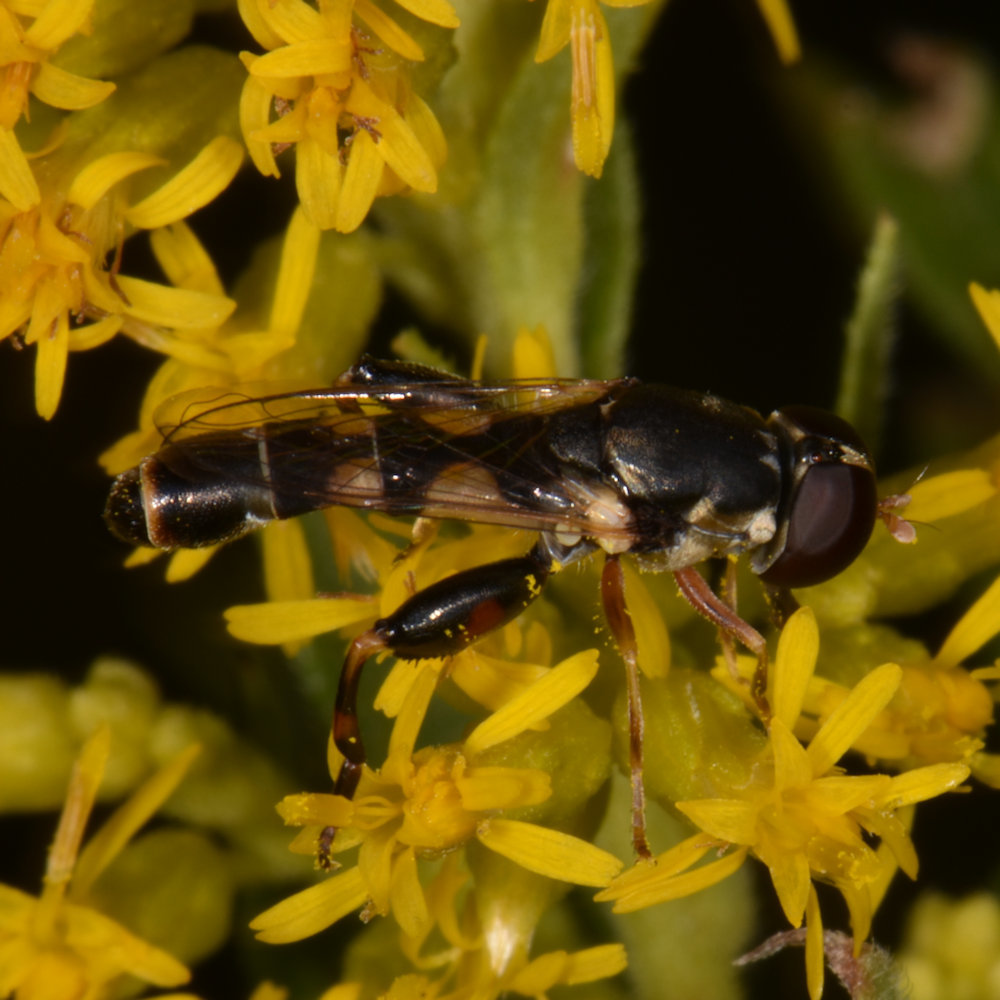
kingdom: Animalia
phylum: Arthropoda
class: Insecta
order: Diptera
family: Syrphidae
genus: Syritta
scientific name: Syritta pipiens
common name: Hover fly
